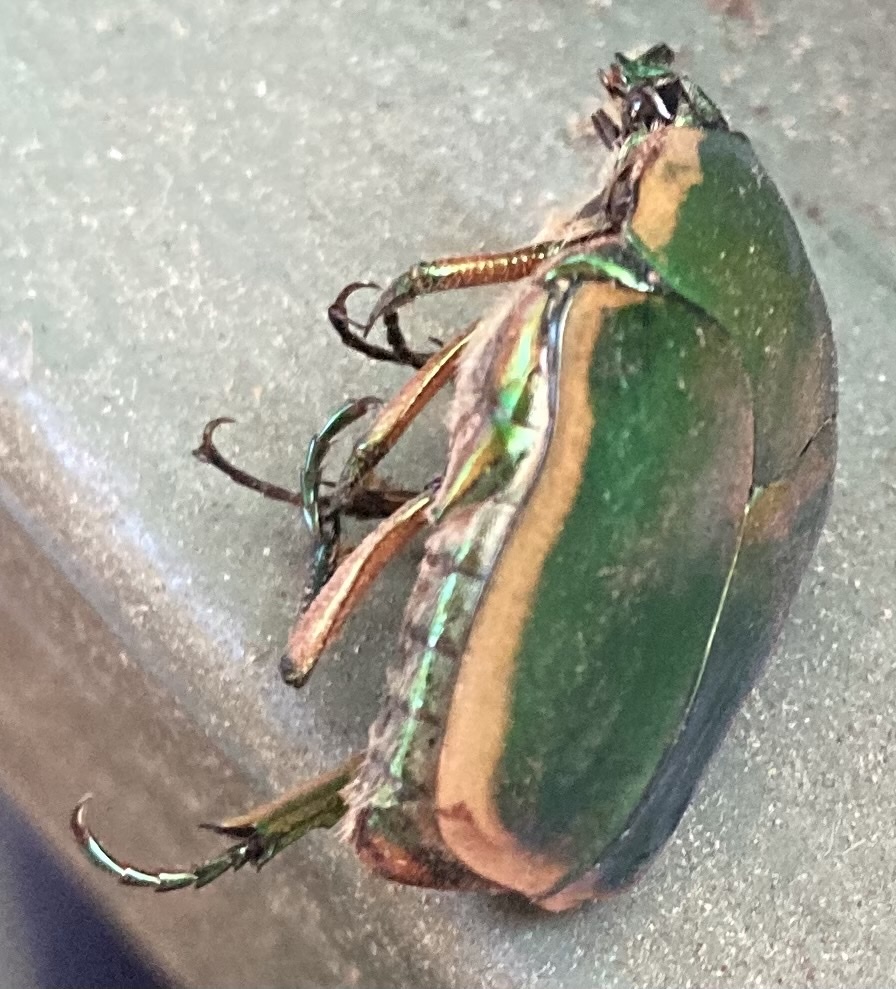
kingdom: Animalia
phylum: Arthropoda
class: Insecta
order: Coleoptera
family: Scarabaeidae
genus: Cotinis
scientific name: Cotinis nitida
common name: Common green june beetle
